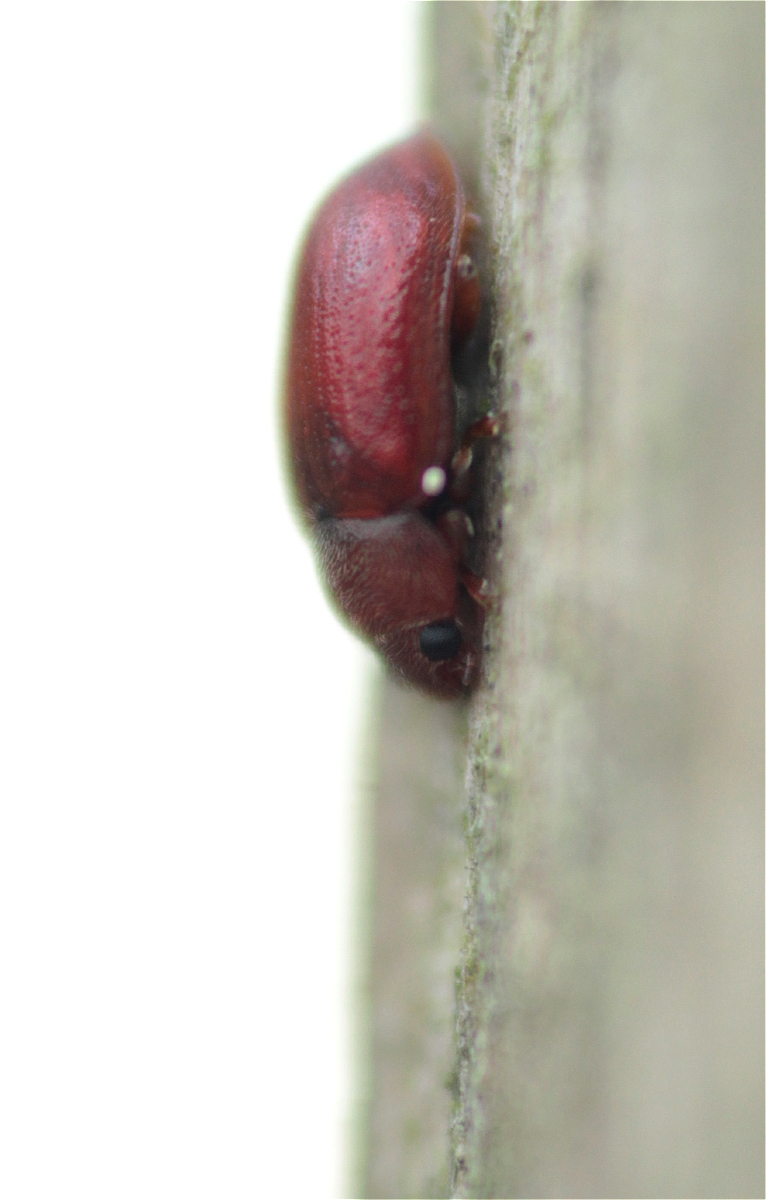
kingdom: Animalia
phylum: Arthropoda
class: Insecta
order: Coleoptera
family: Coccinellidae
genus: Coccidula
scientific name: Coccidula rufa
